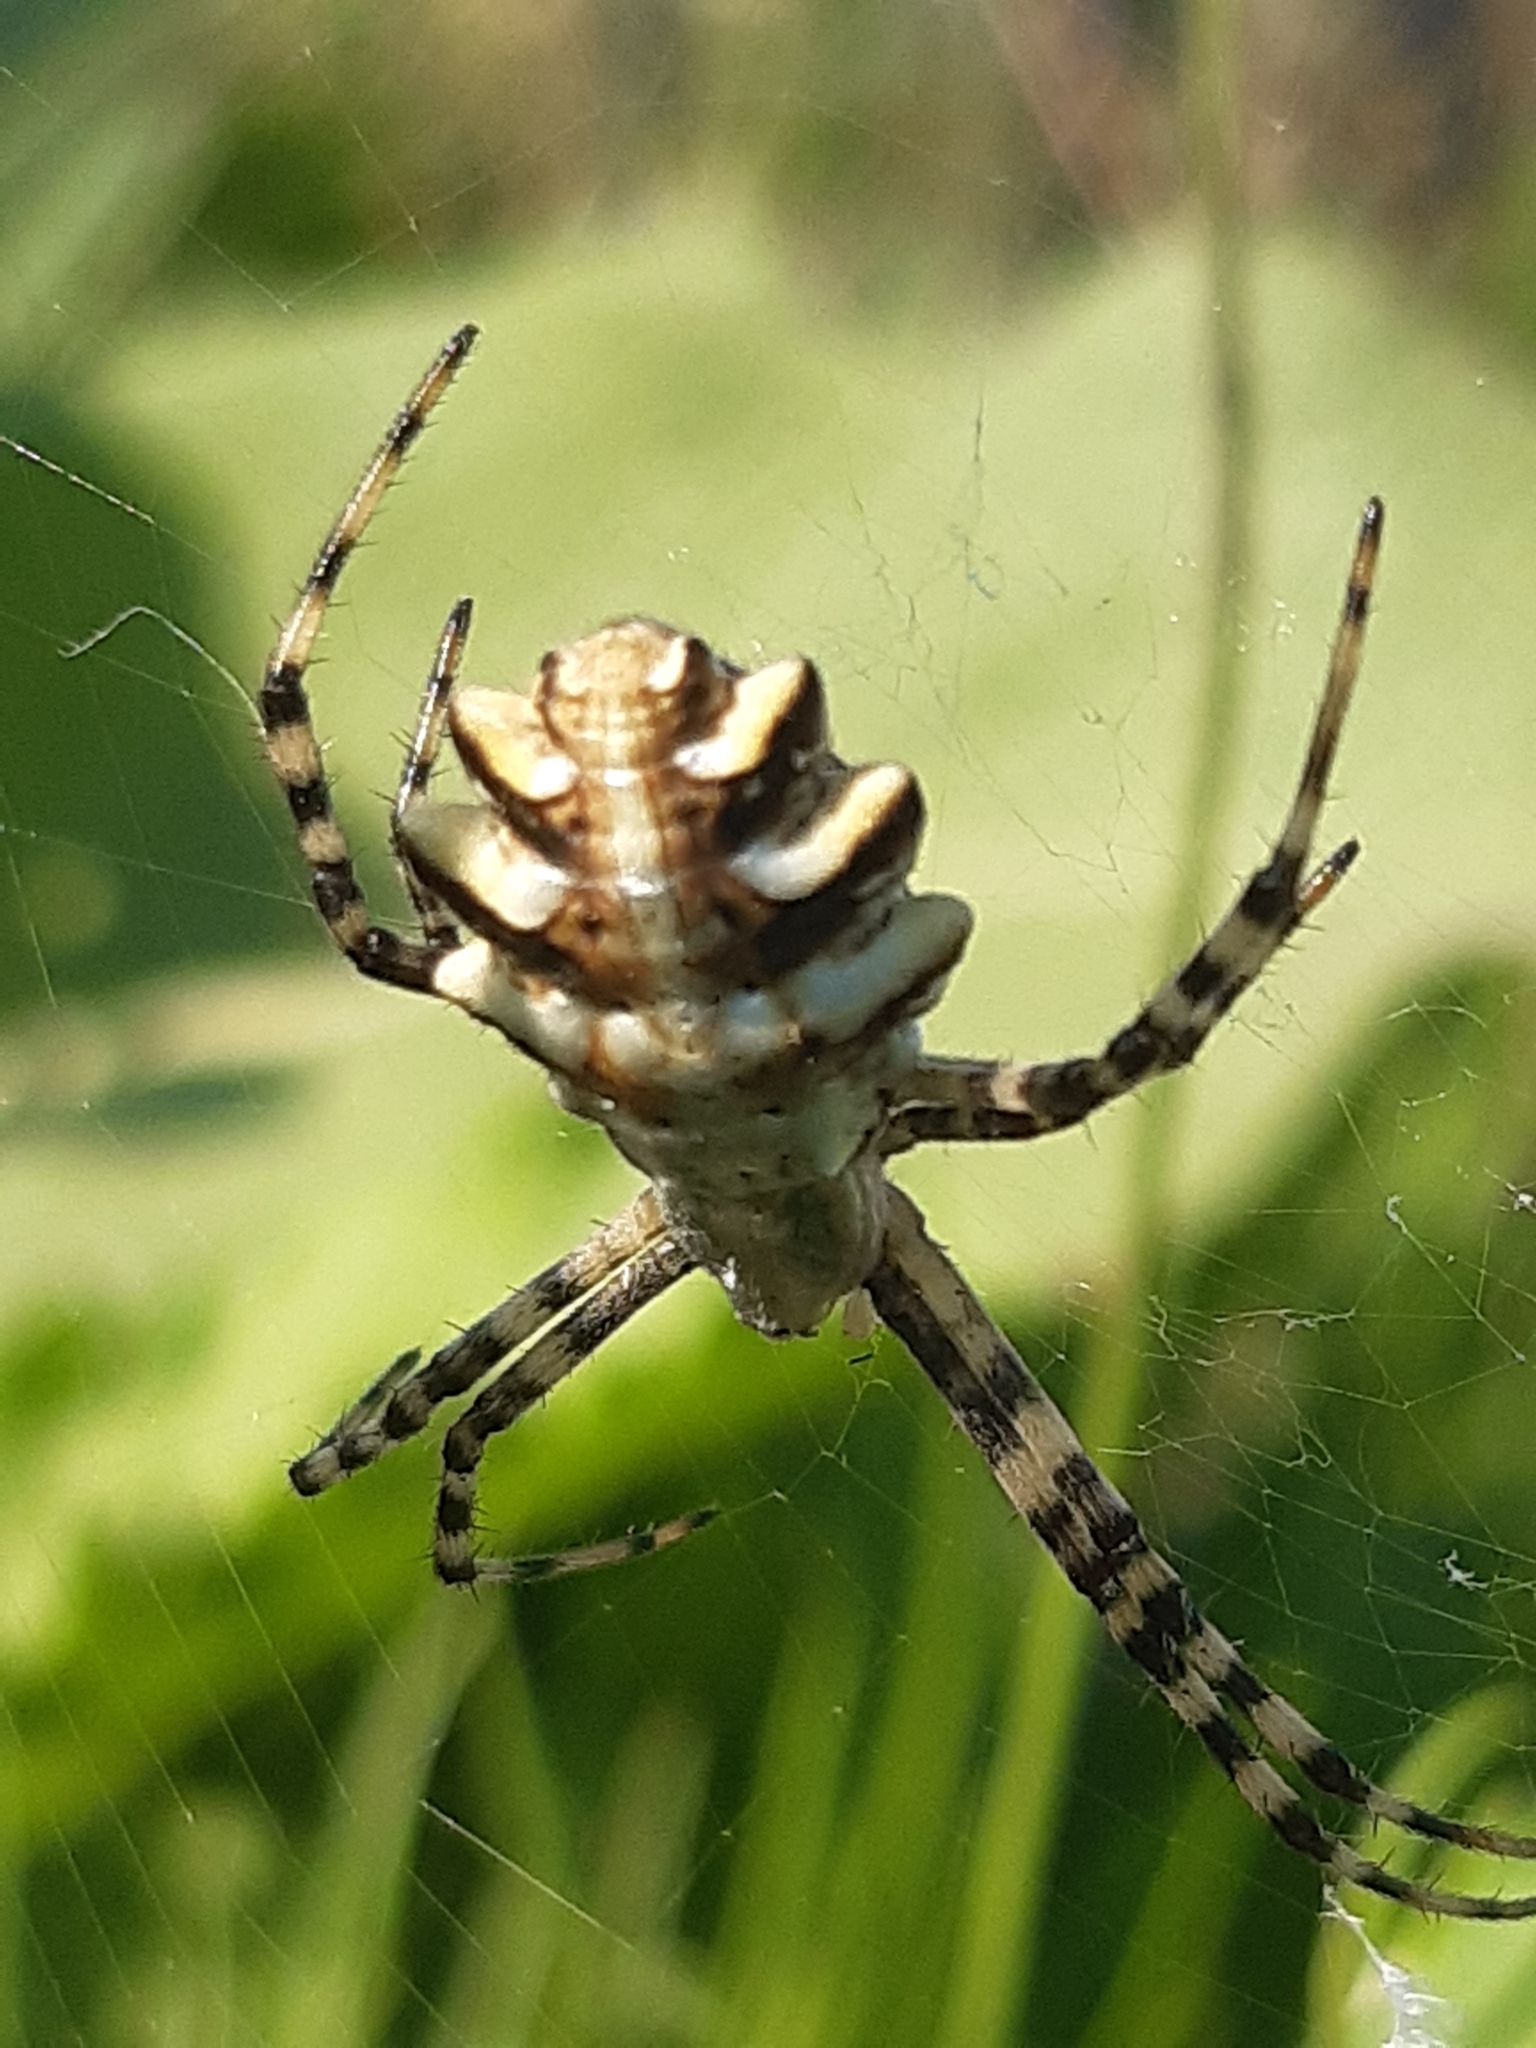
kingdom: Animalia
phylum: Arthropoda
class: Arachnida
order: Araneae
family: Araneidae
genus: Argiope
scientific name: Argiope lobata
